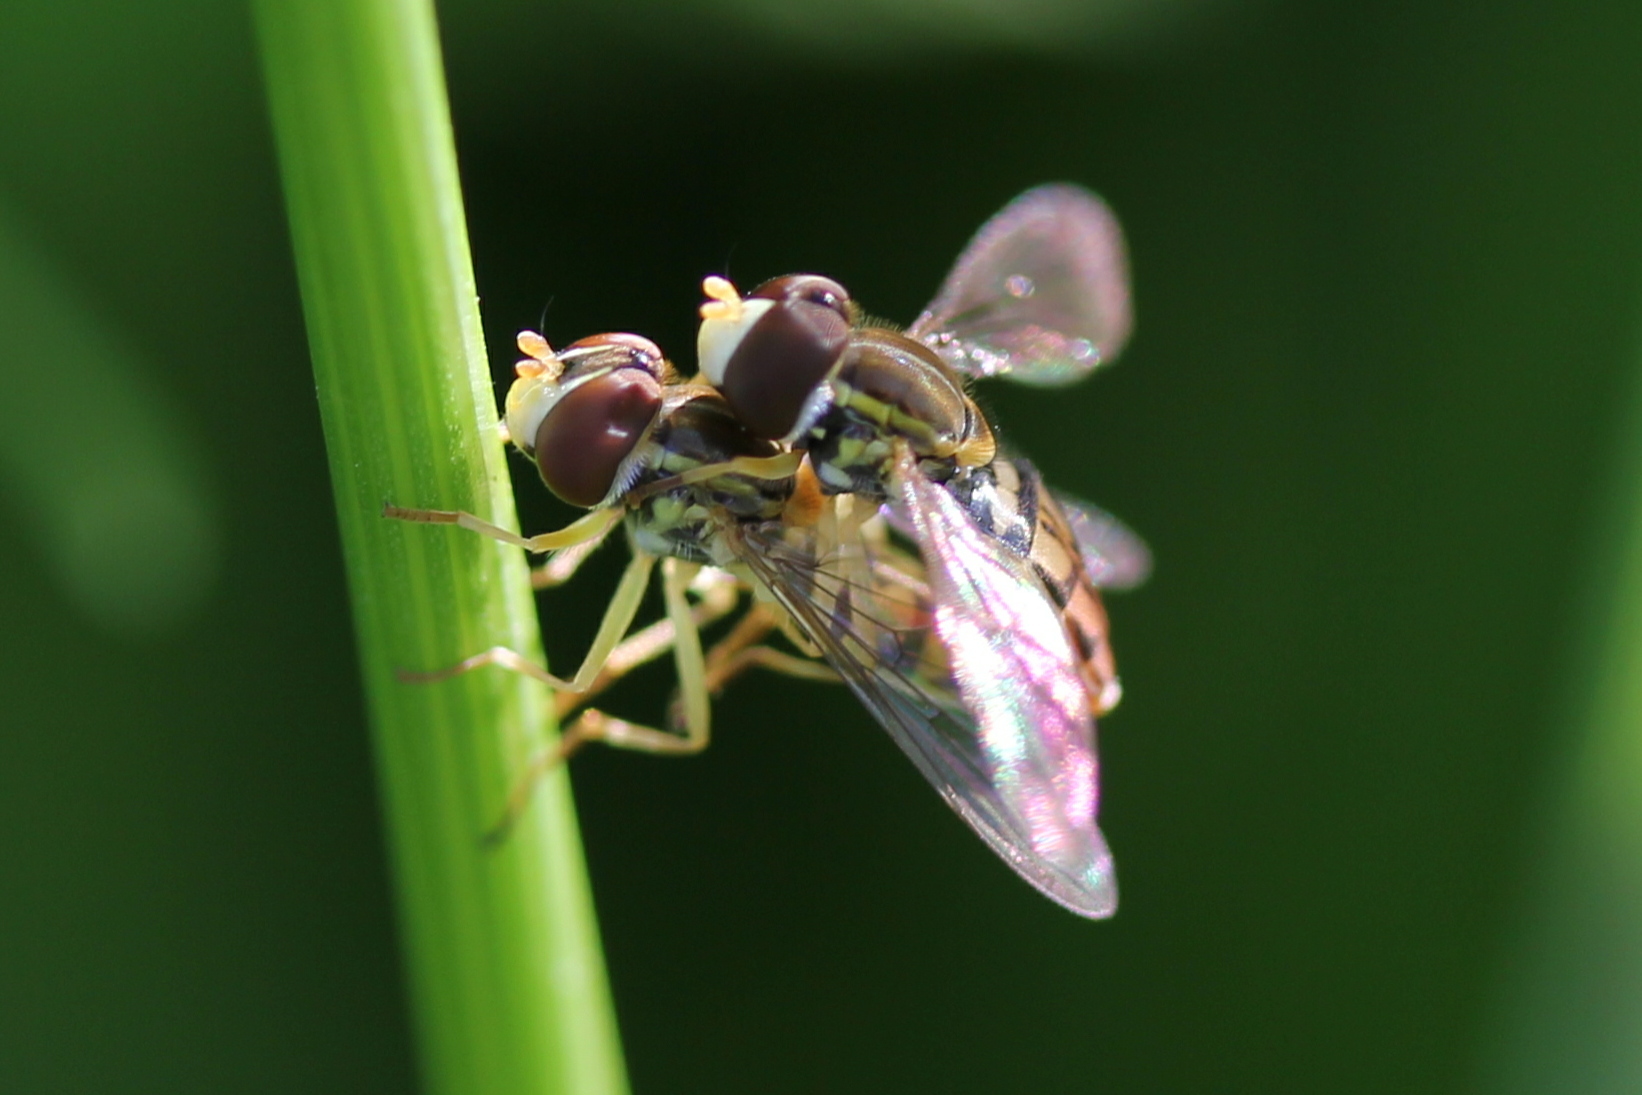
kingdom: Animalia
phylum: Arthropoda
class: Insecta
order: Diptera
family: Syrphidae
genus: Toxomerus
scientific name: Toxomerus marginatus
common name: Syrphid fly
